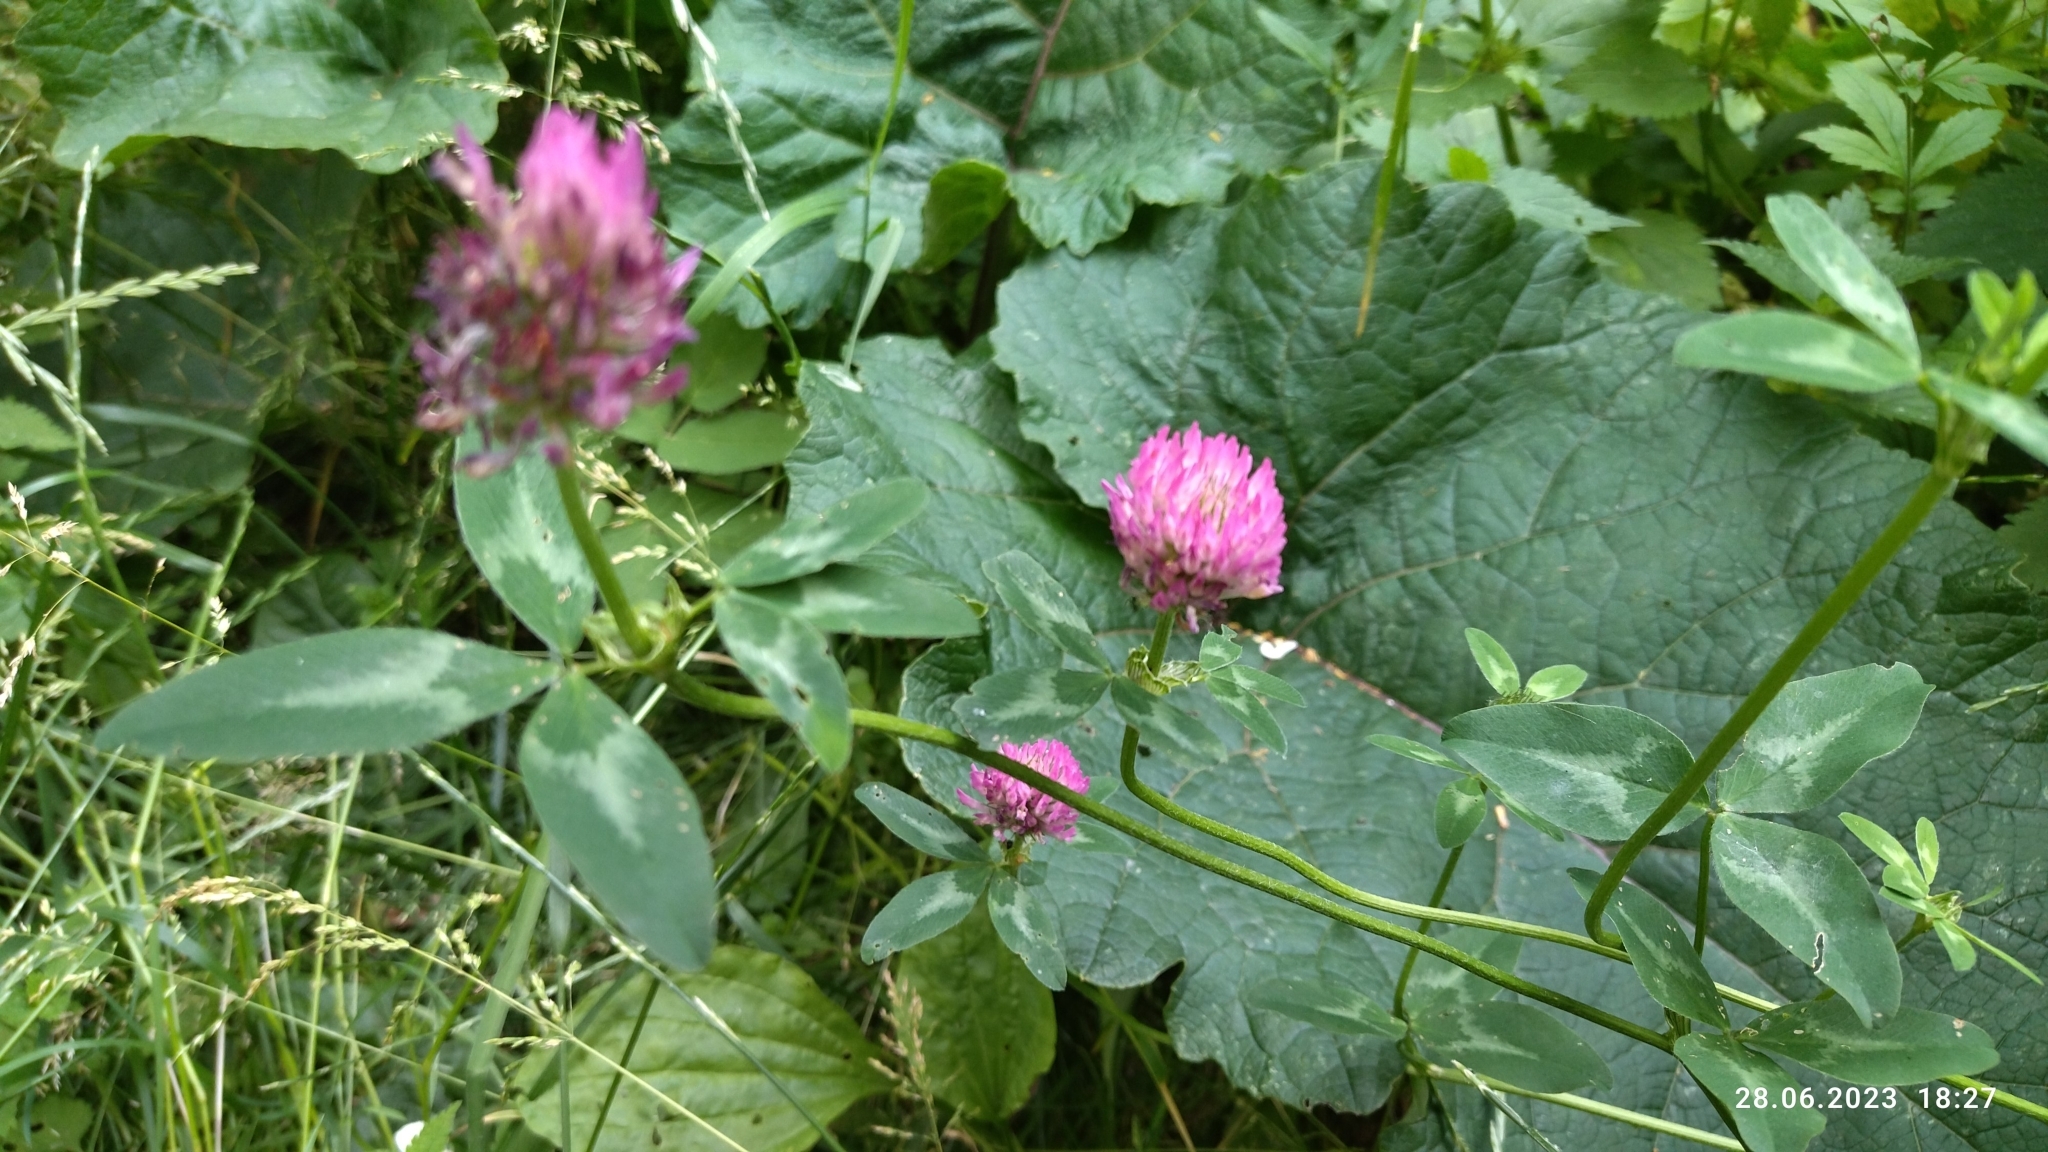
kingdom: Plantae
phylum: Tracheophyta
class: Magnoliopsida
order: Fabales
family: Fabaceae
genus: Trifolium
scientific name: Trifolium pratense
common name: Red clover
